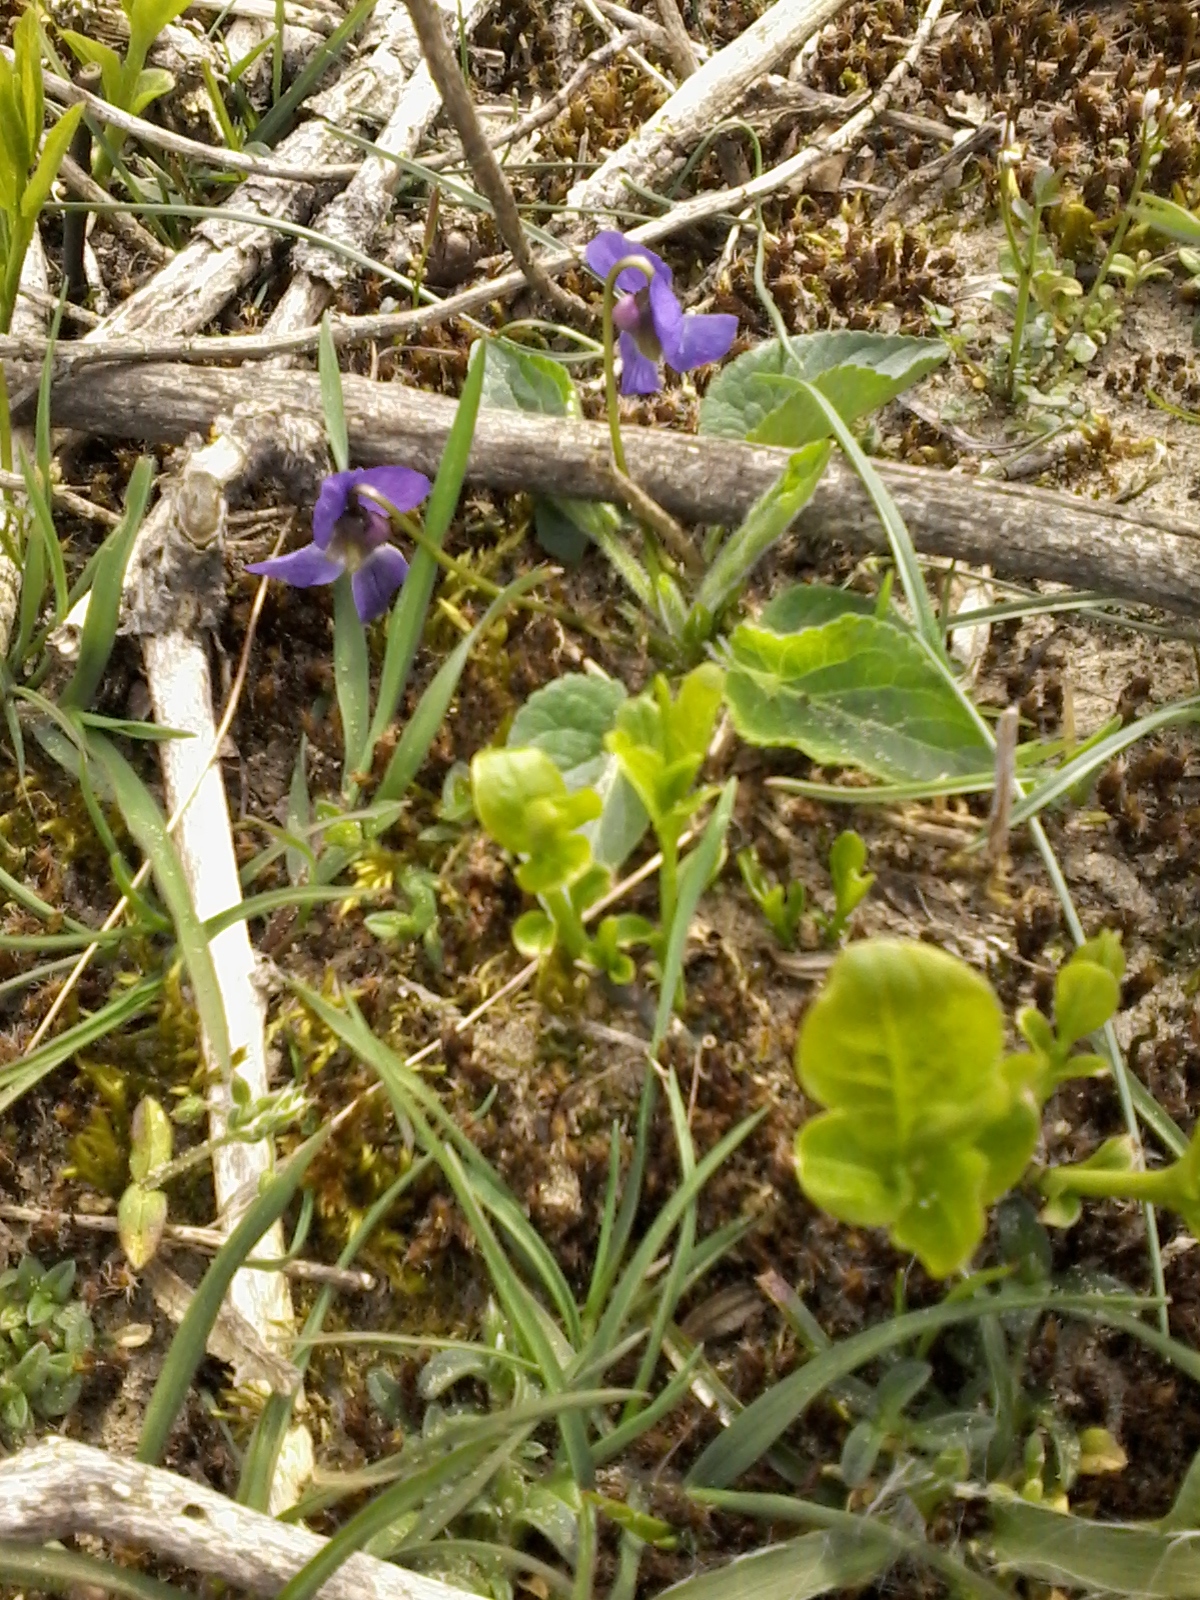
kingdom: Plantae
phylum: Tracheophyta
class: Magnoliopsida
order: Malpighiales
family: Violaceae
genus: Viola
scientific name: Viola hirta
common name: Hairy violet
